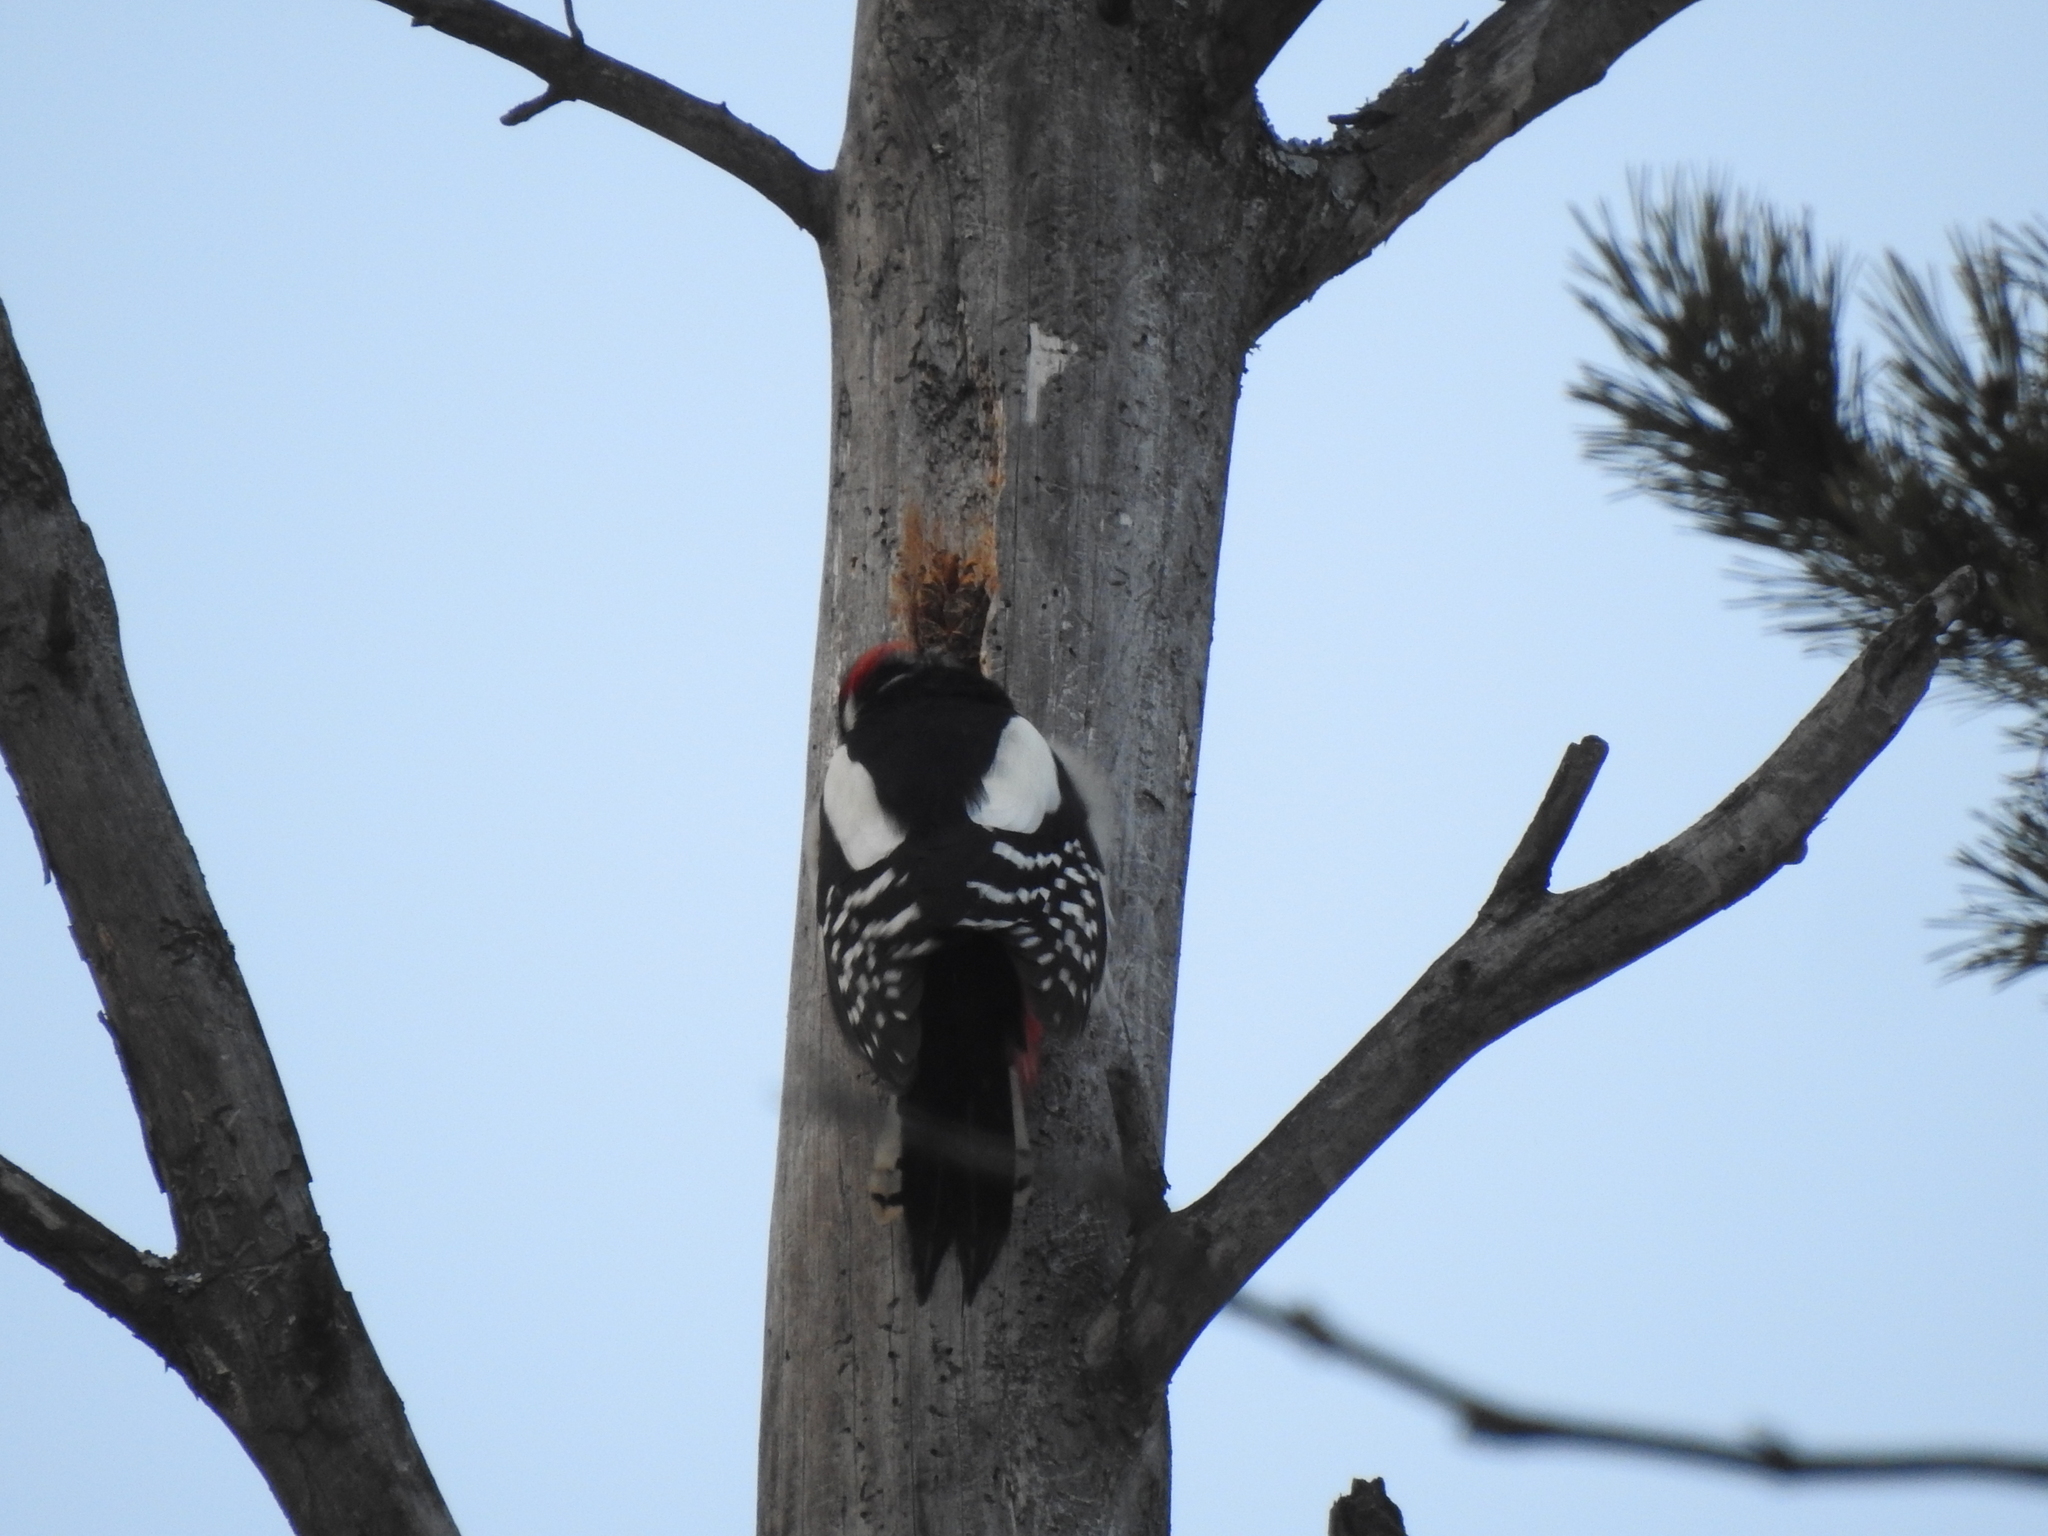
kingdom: Animalia
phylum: Chordata
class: Aves
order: Piciformes
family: Picidae
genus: Dendrocopos
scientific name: Dendrocopos major
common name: Great spotted woodpecker
